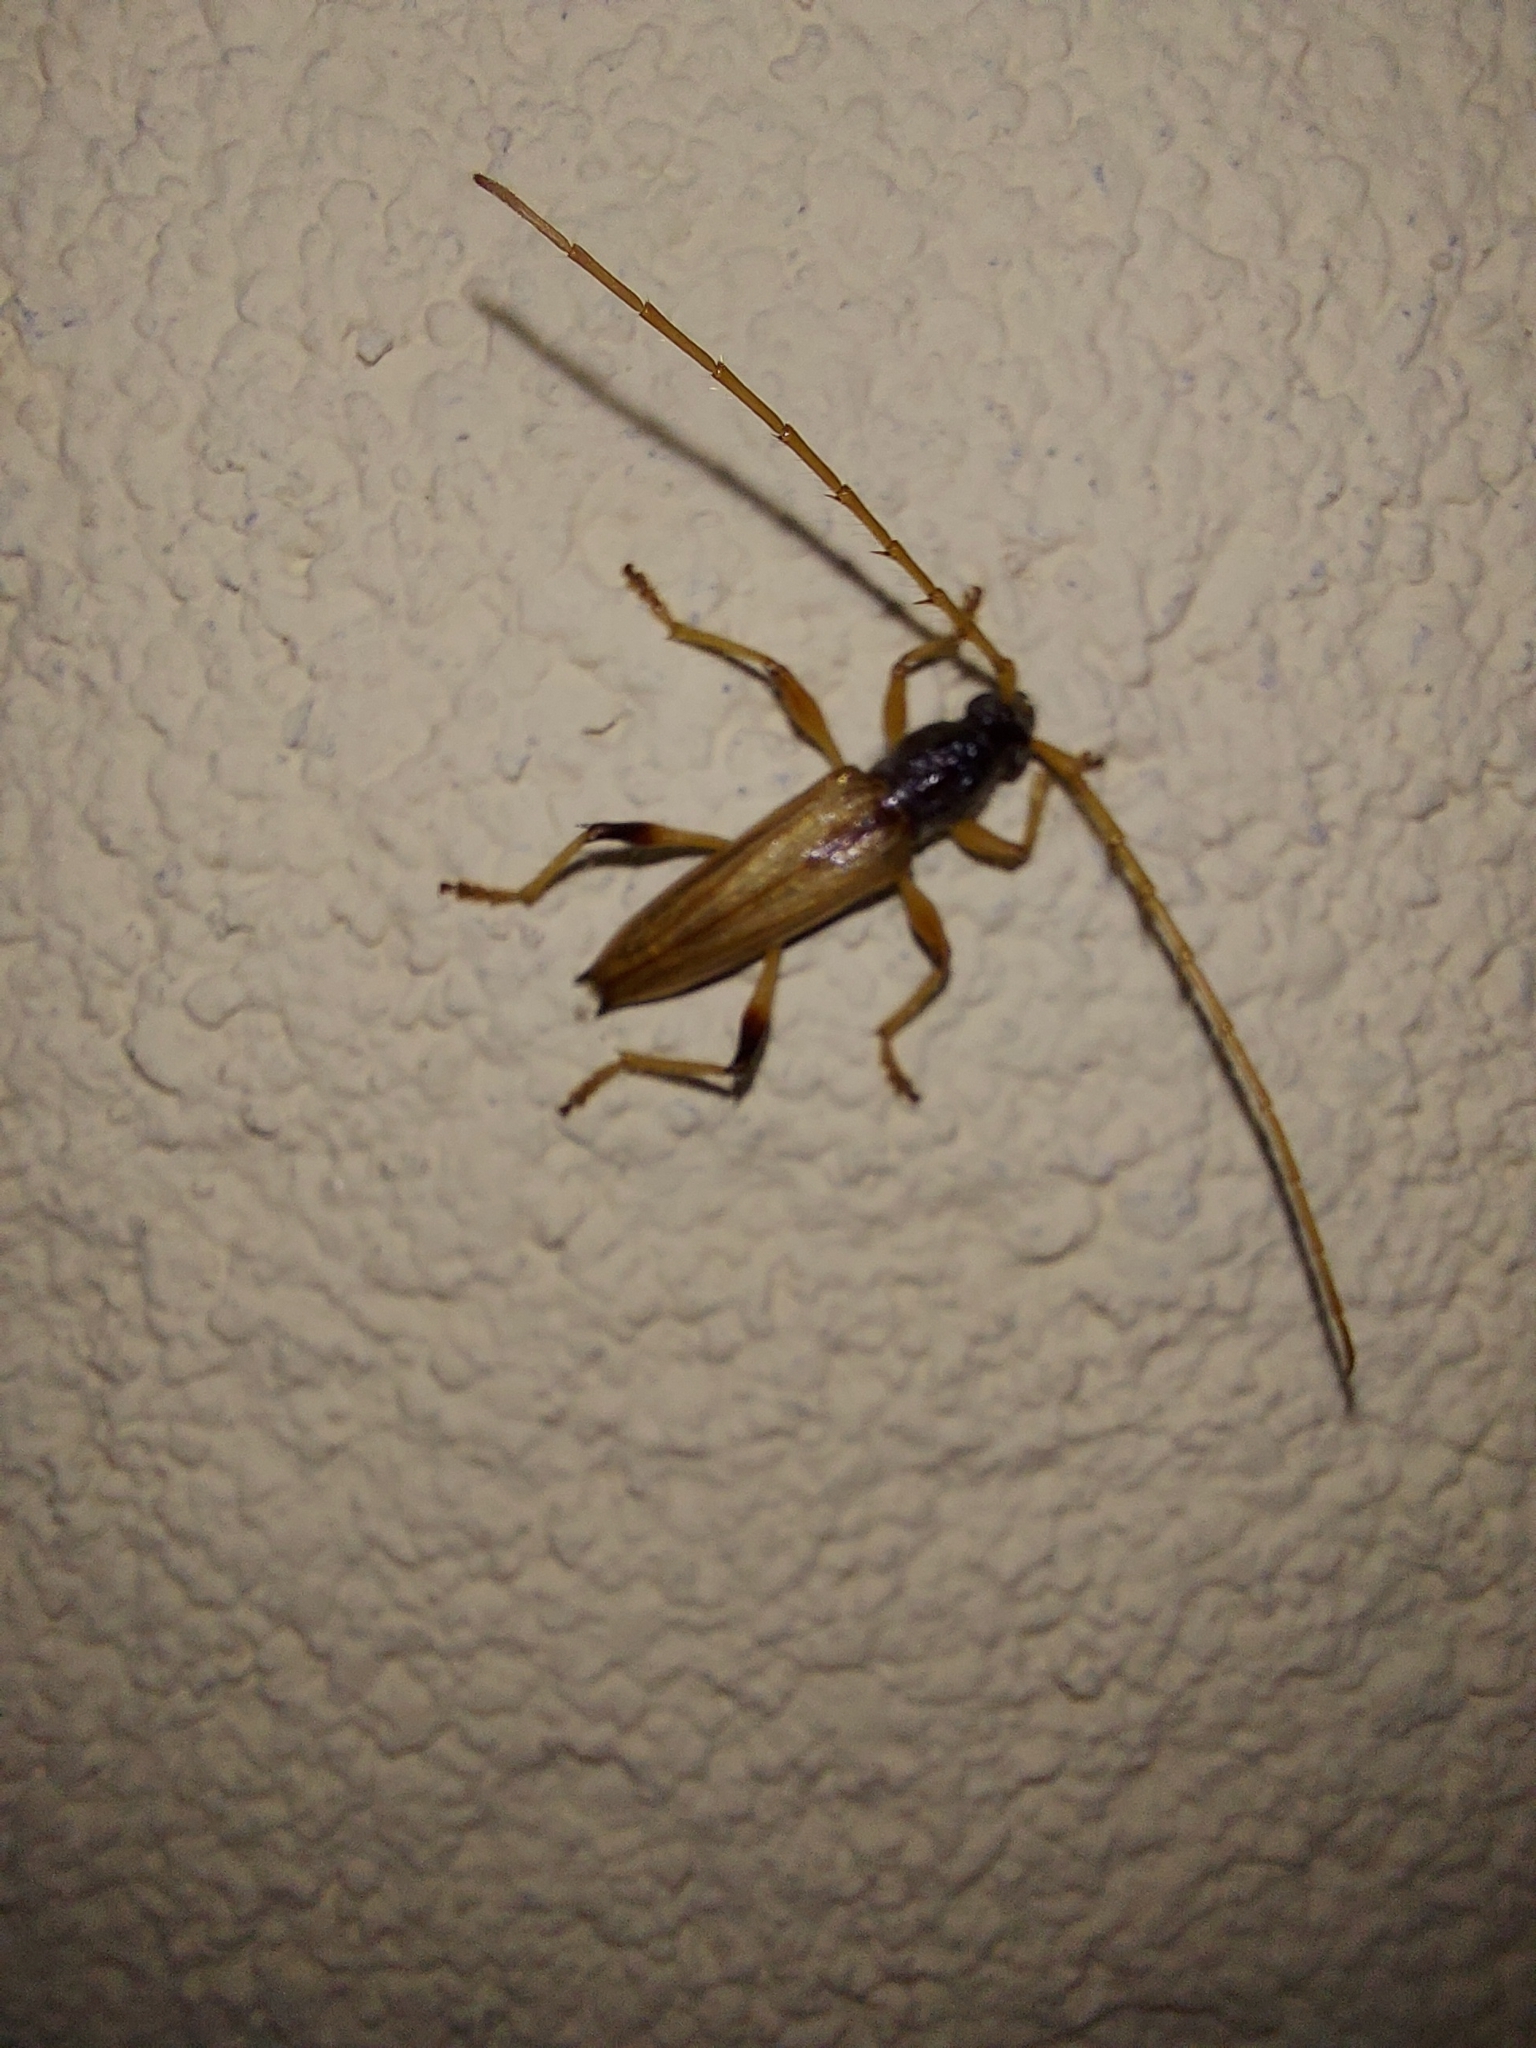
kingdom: Animalia
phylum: Arthropoda
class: Insecta
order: Coleoptera
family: Cerambycidae
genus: Stizocera
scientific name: Stizocera plicicollis
